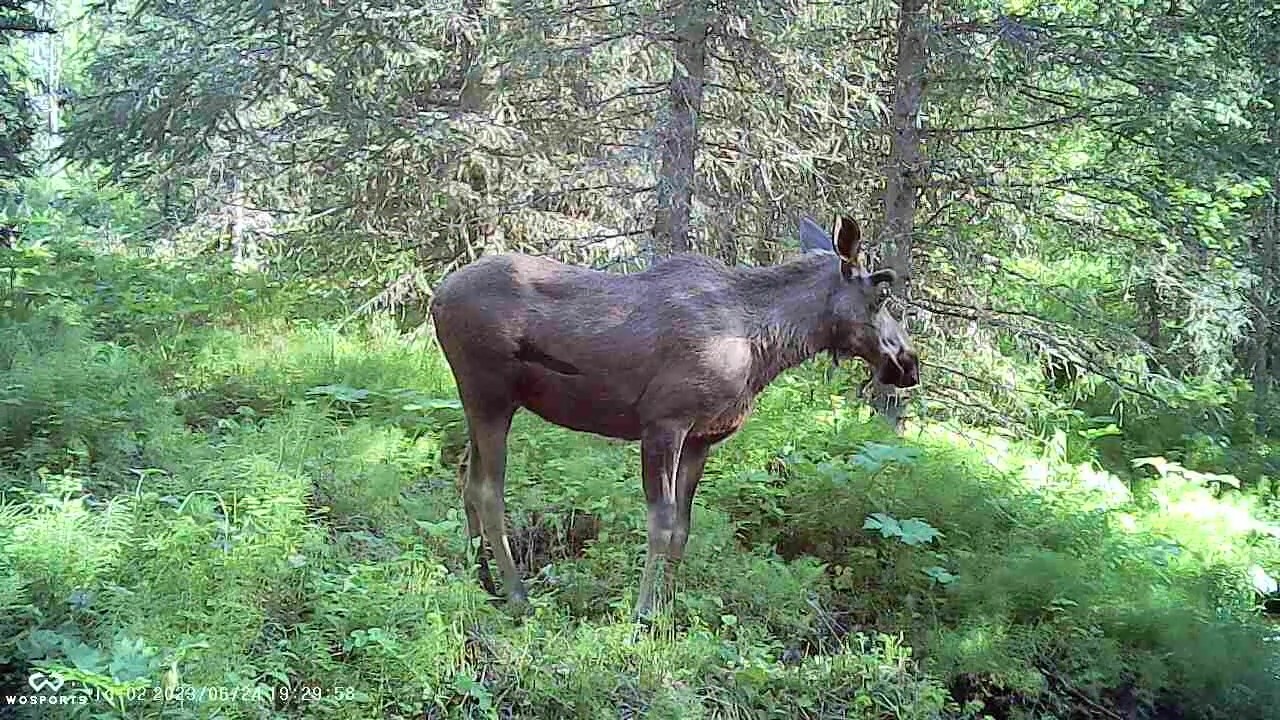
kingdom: Animalia
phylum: Chordata
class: Mammalia
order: Artiodactyla
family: Cervidae
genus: Alces
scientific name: Alces alces
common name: Moose
